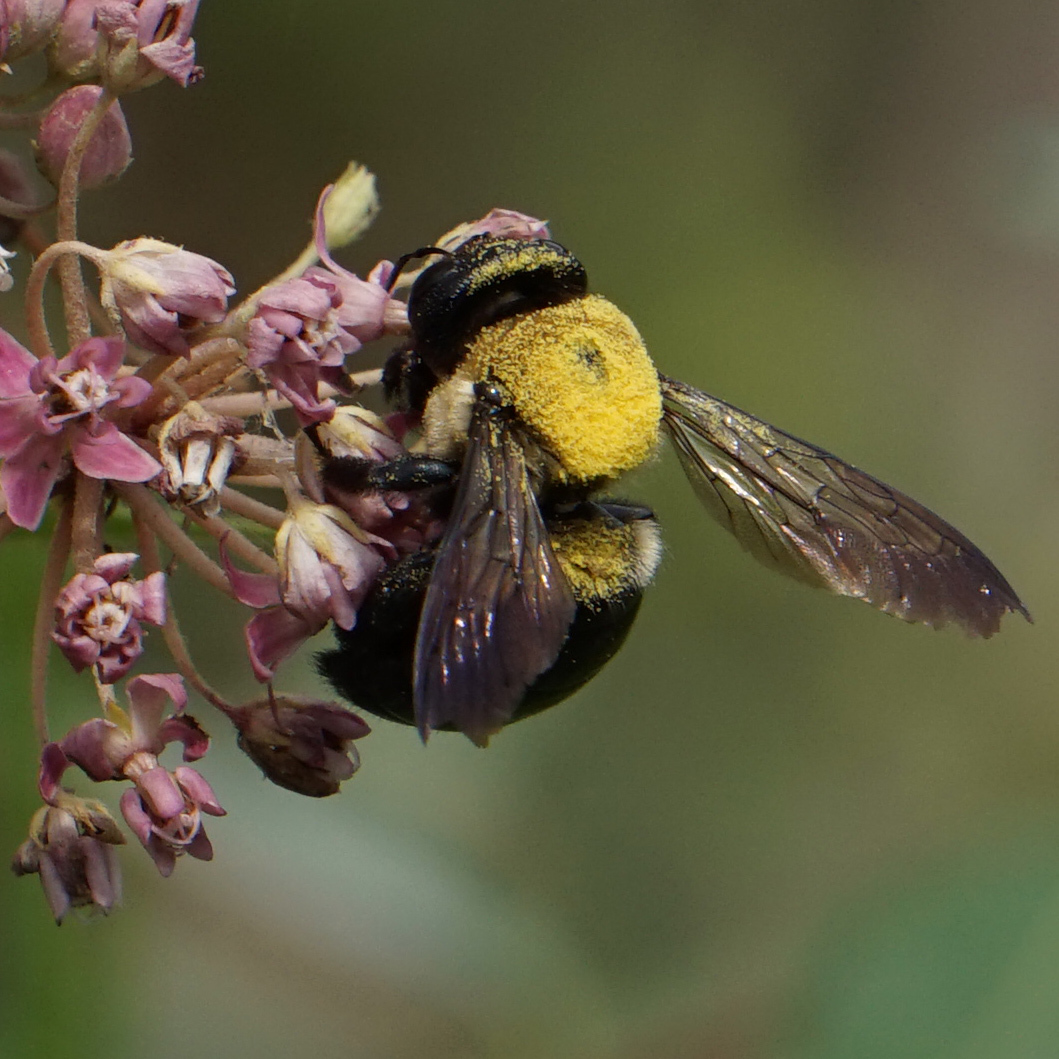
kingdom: Animalia
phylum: Arthropoda
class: Insecta
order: Hymenoptera
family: Apidae
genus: Xylocopa
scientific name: Xylocopa virginica
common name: Carpenter bee
